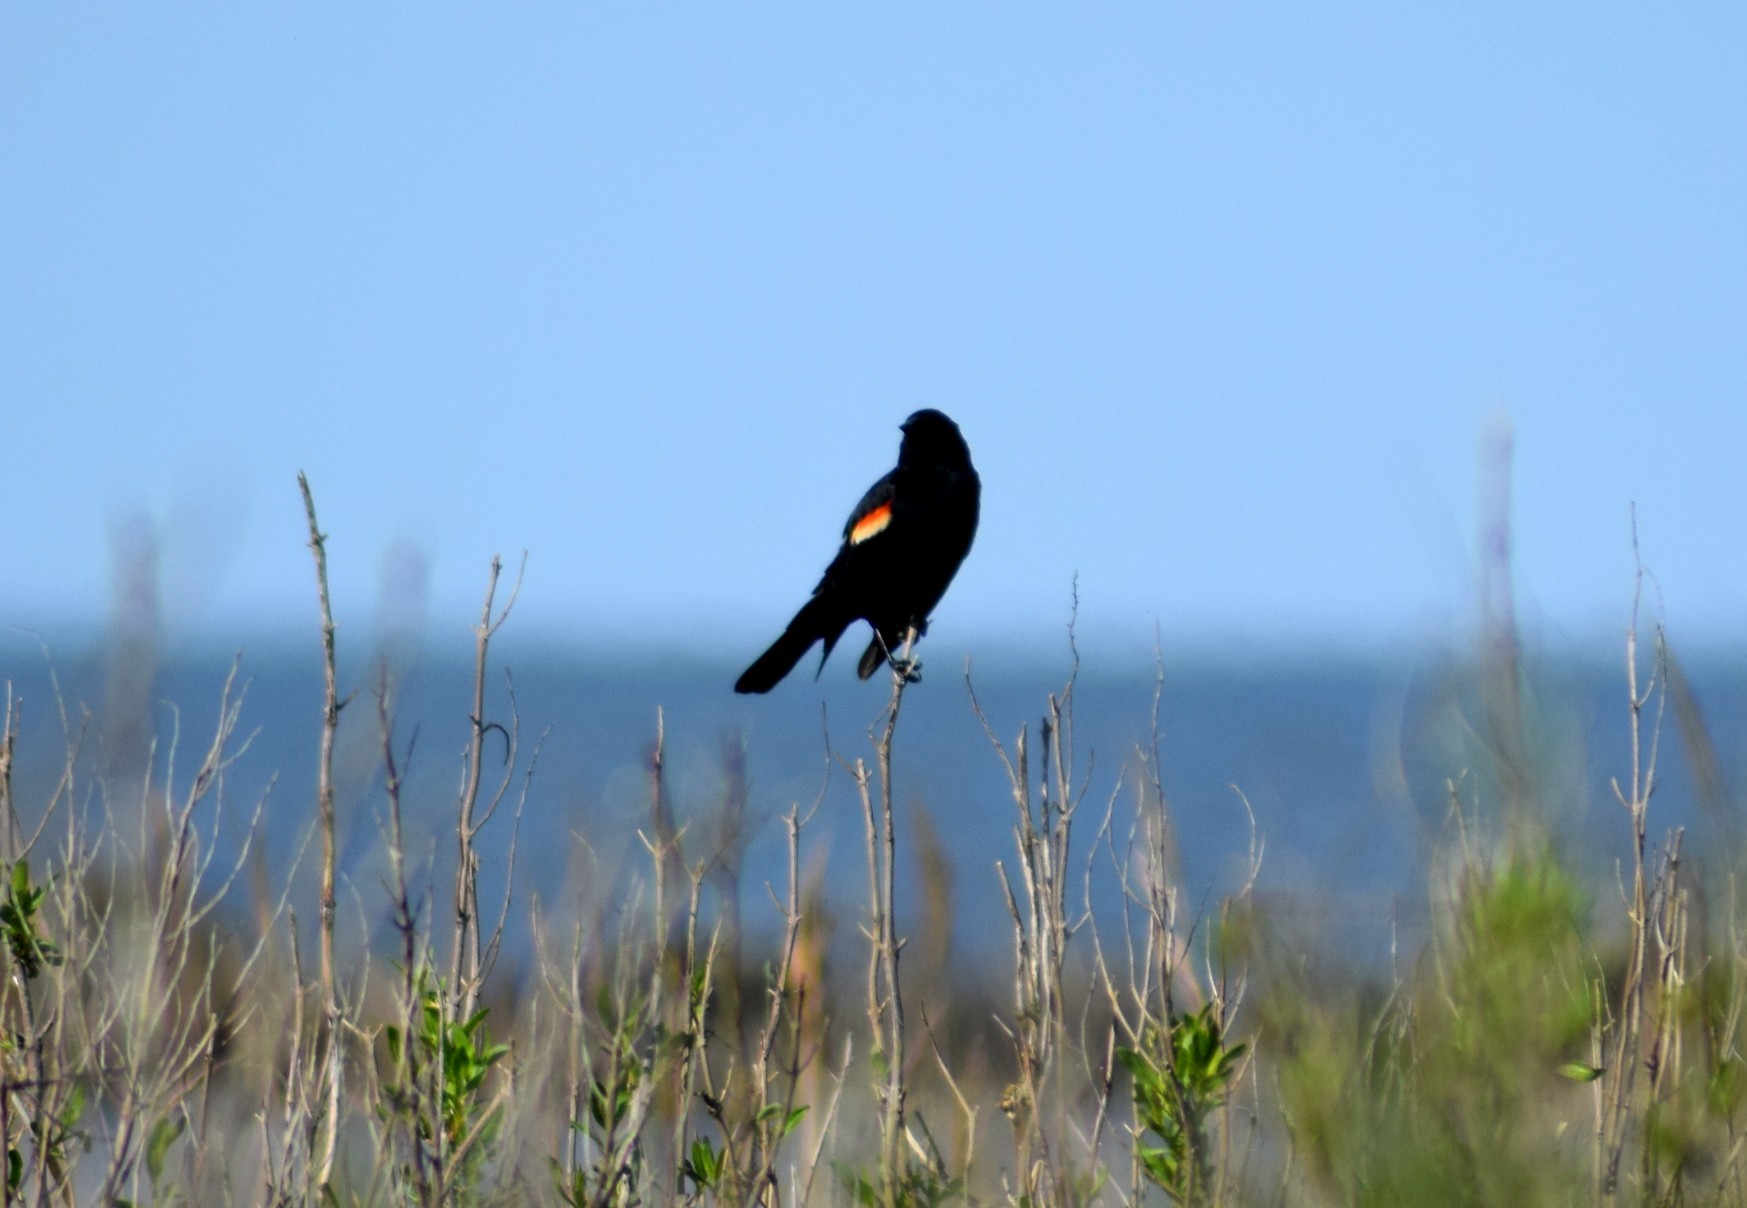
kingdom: Animalia
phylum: Chordata
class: Aves
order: Passeriformes
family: Icteridae
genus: Agelaius
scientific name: Agelaius phoeniceus
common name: Red-winged blackbird
